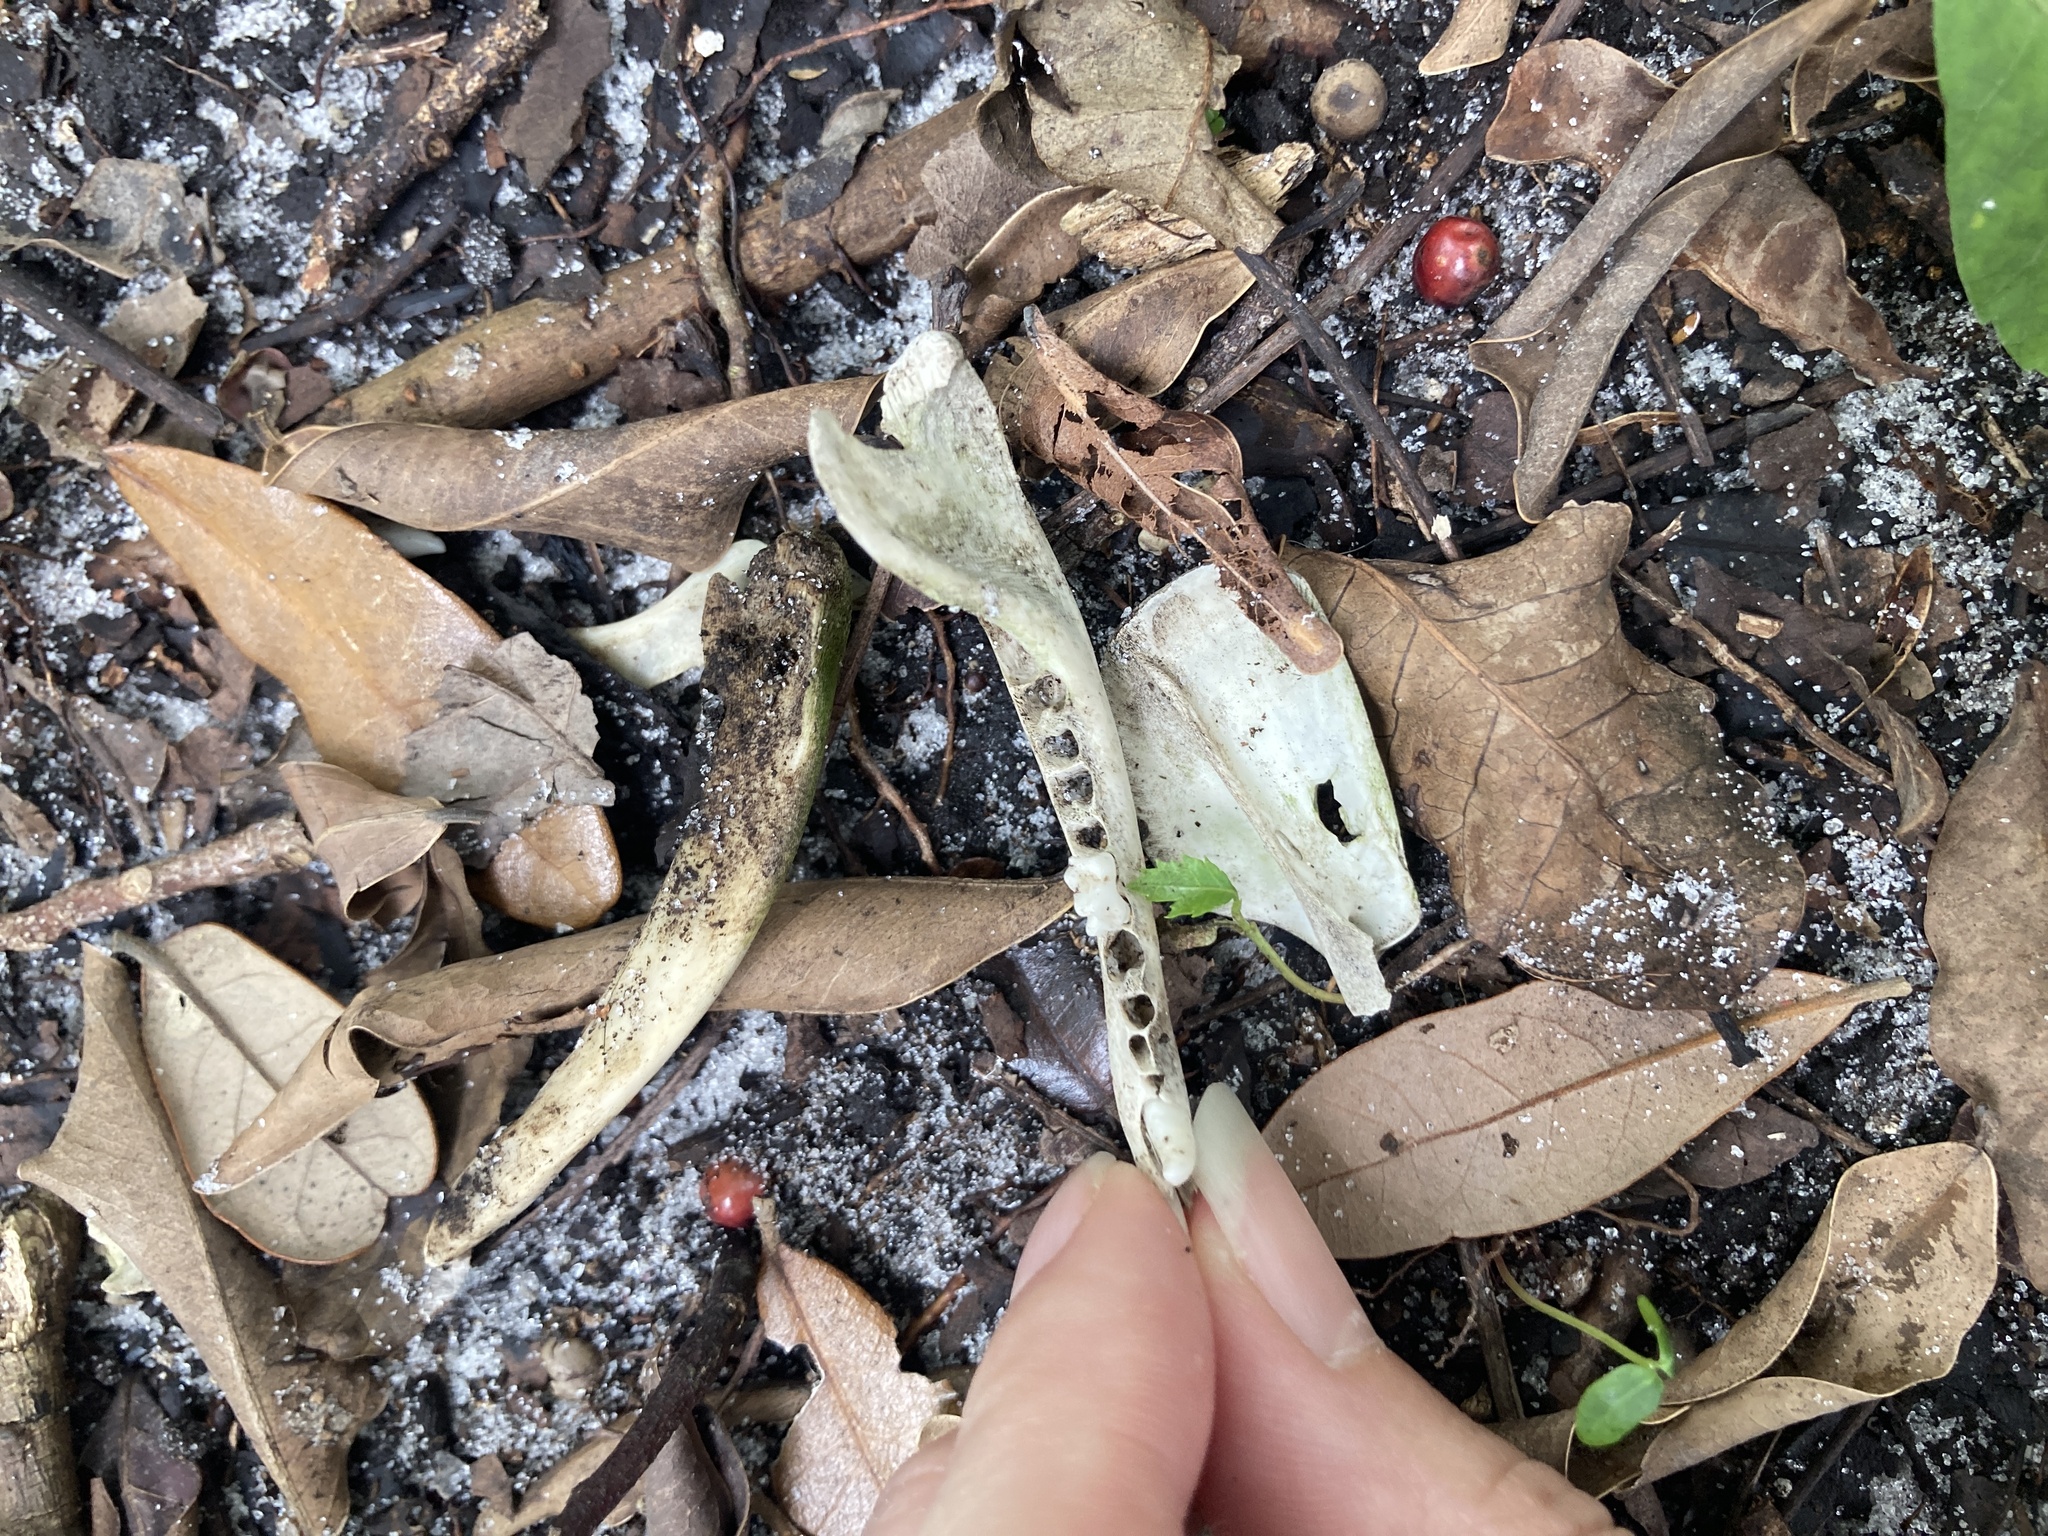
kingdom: Animalia
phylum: Chordata
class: Mammalia
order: Didelphimorphia
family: Didelphidae
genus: Didelphis
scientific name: Didelphis virginiana
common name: Virginia opossum
